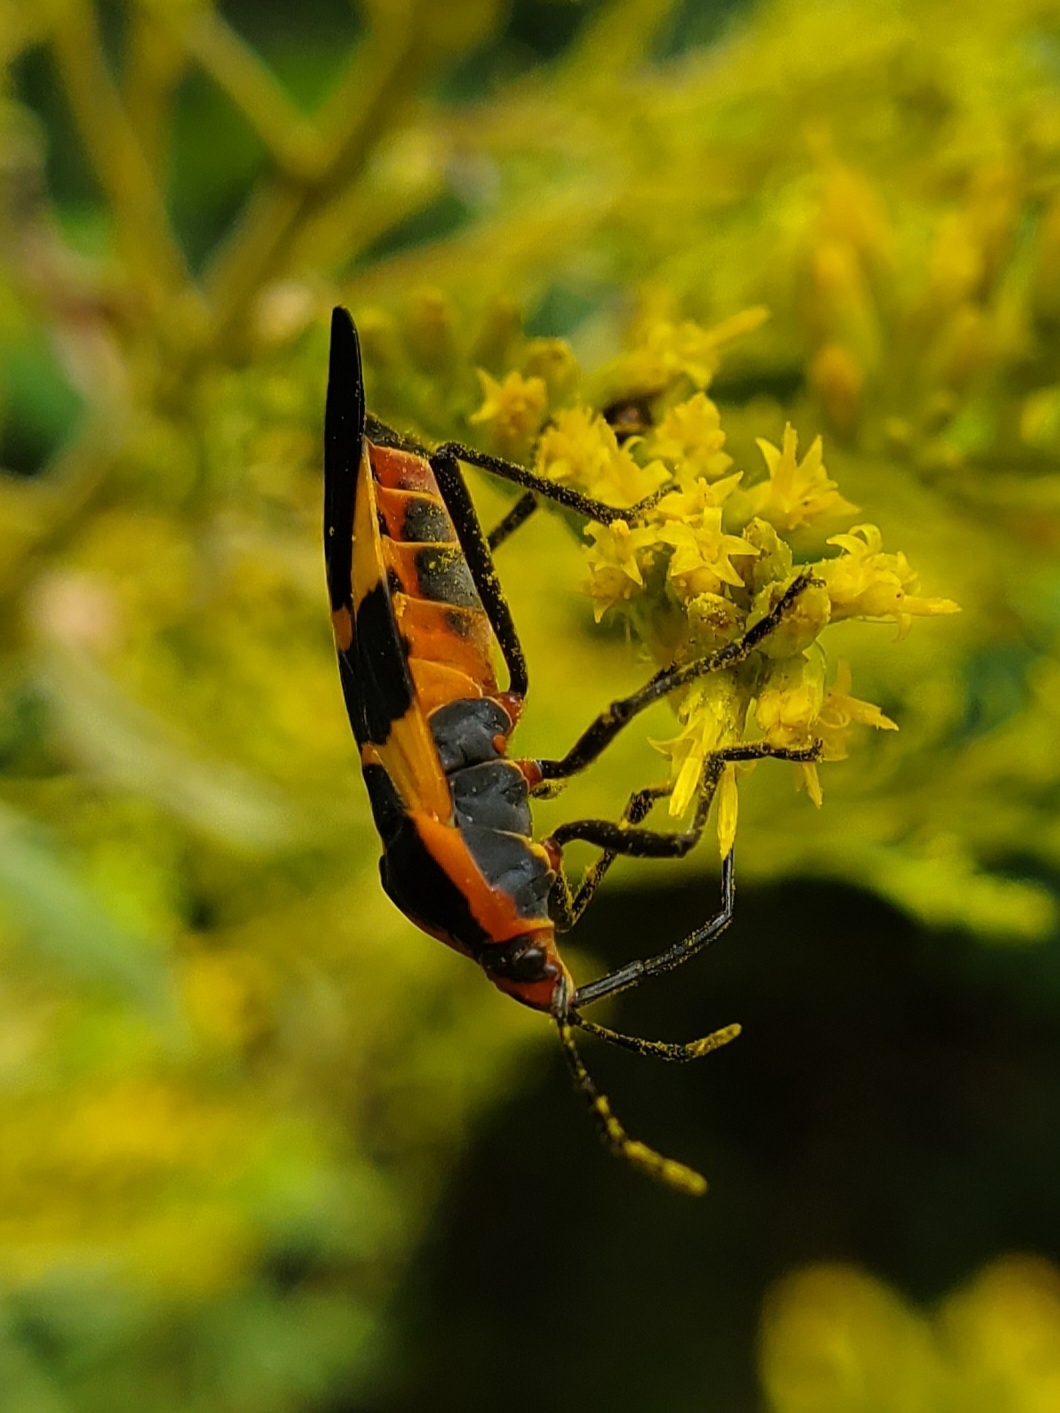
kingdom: Animalia
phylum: Arthropoda
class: Insecta
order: Hemiptera
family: Lygaeidae
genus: Oncopeltus
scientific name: Oncopeltus fasciatus
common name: Large milkweed bug
